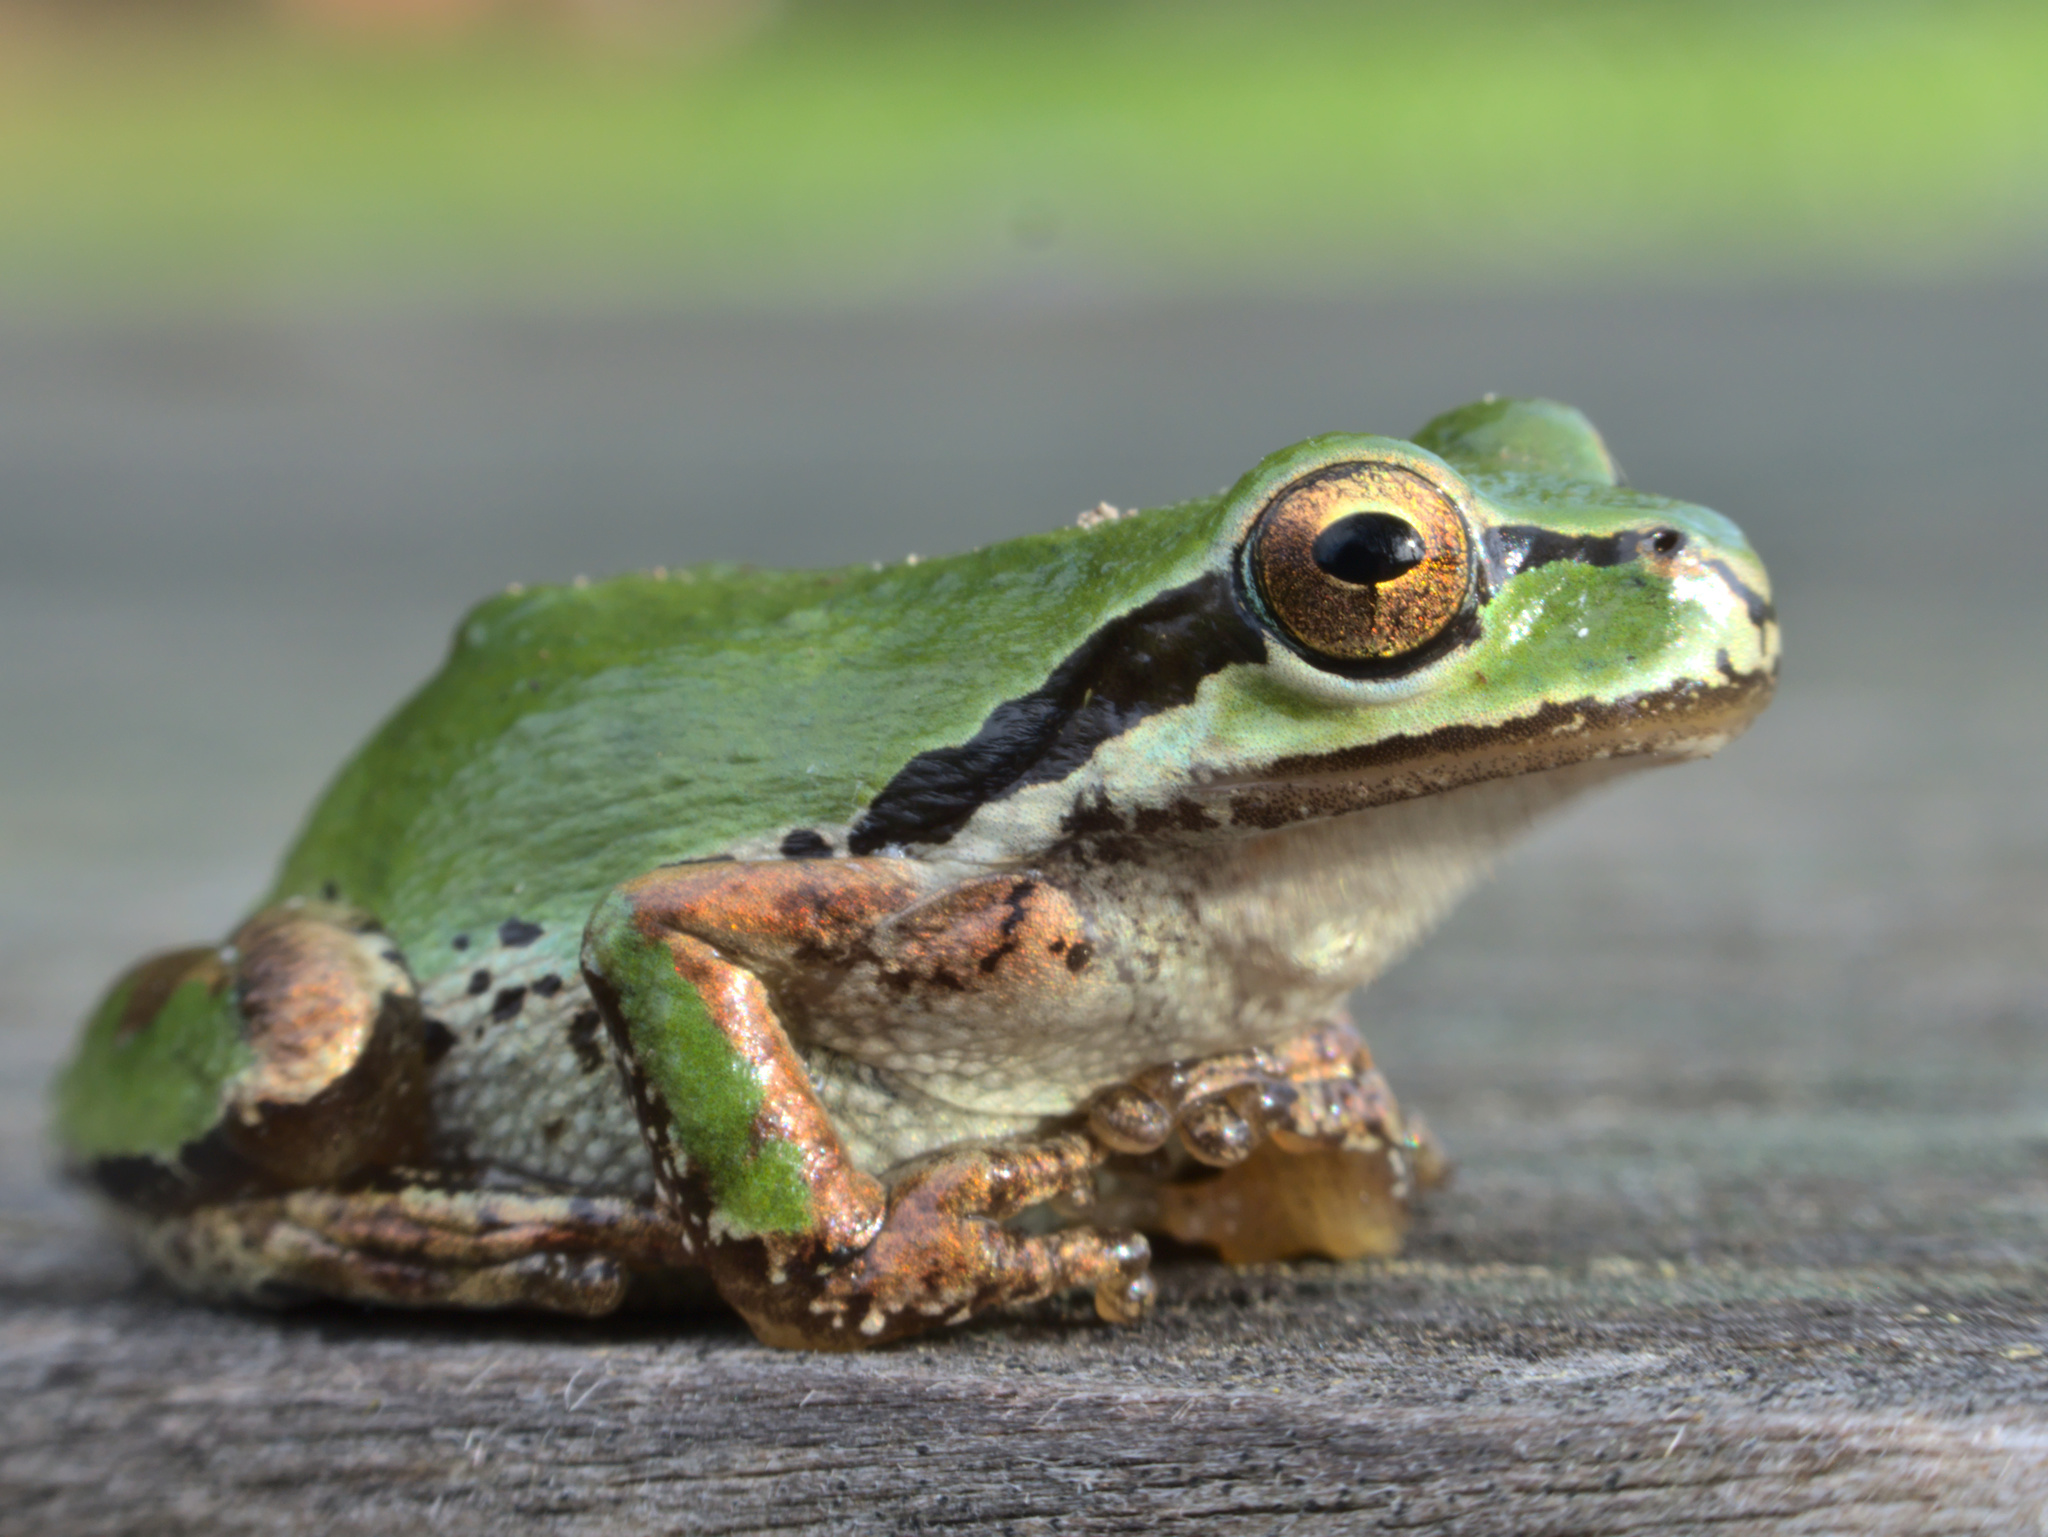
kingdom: Animalia
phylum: Chordata
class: Amphibia
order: Anura
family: Hylidae
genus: Pseudacris
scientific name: Pseudacris regilla
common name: Pacific chorus frog
